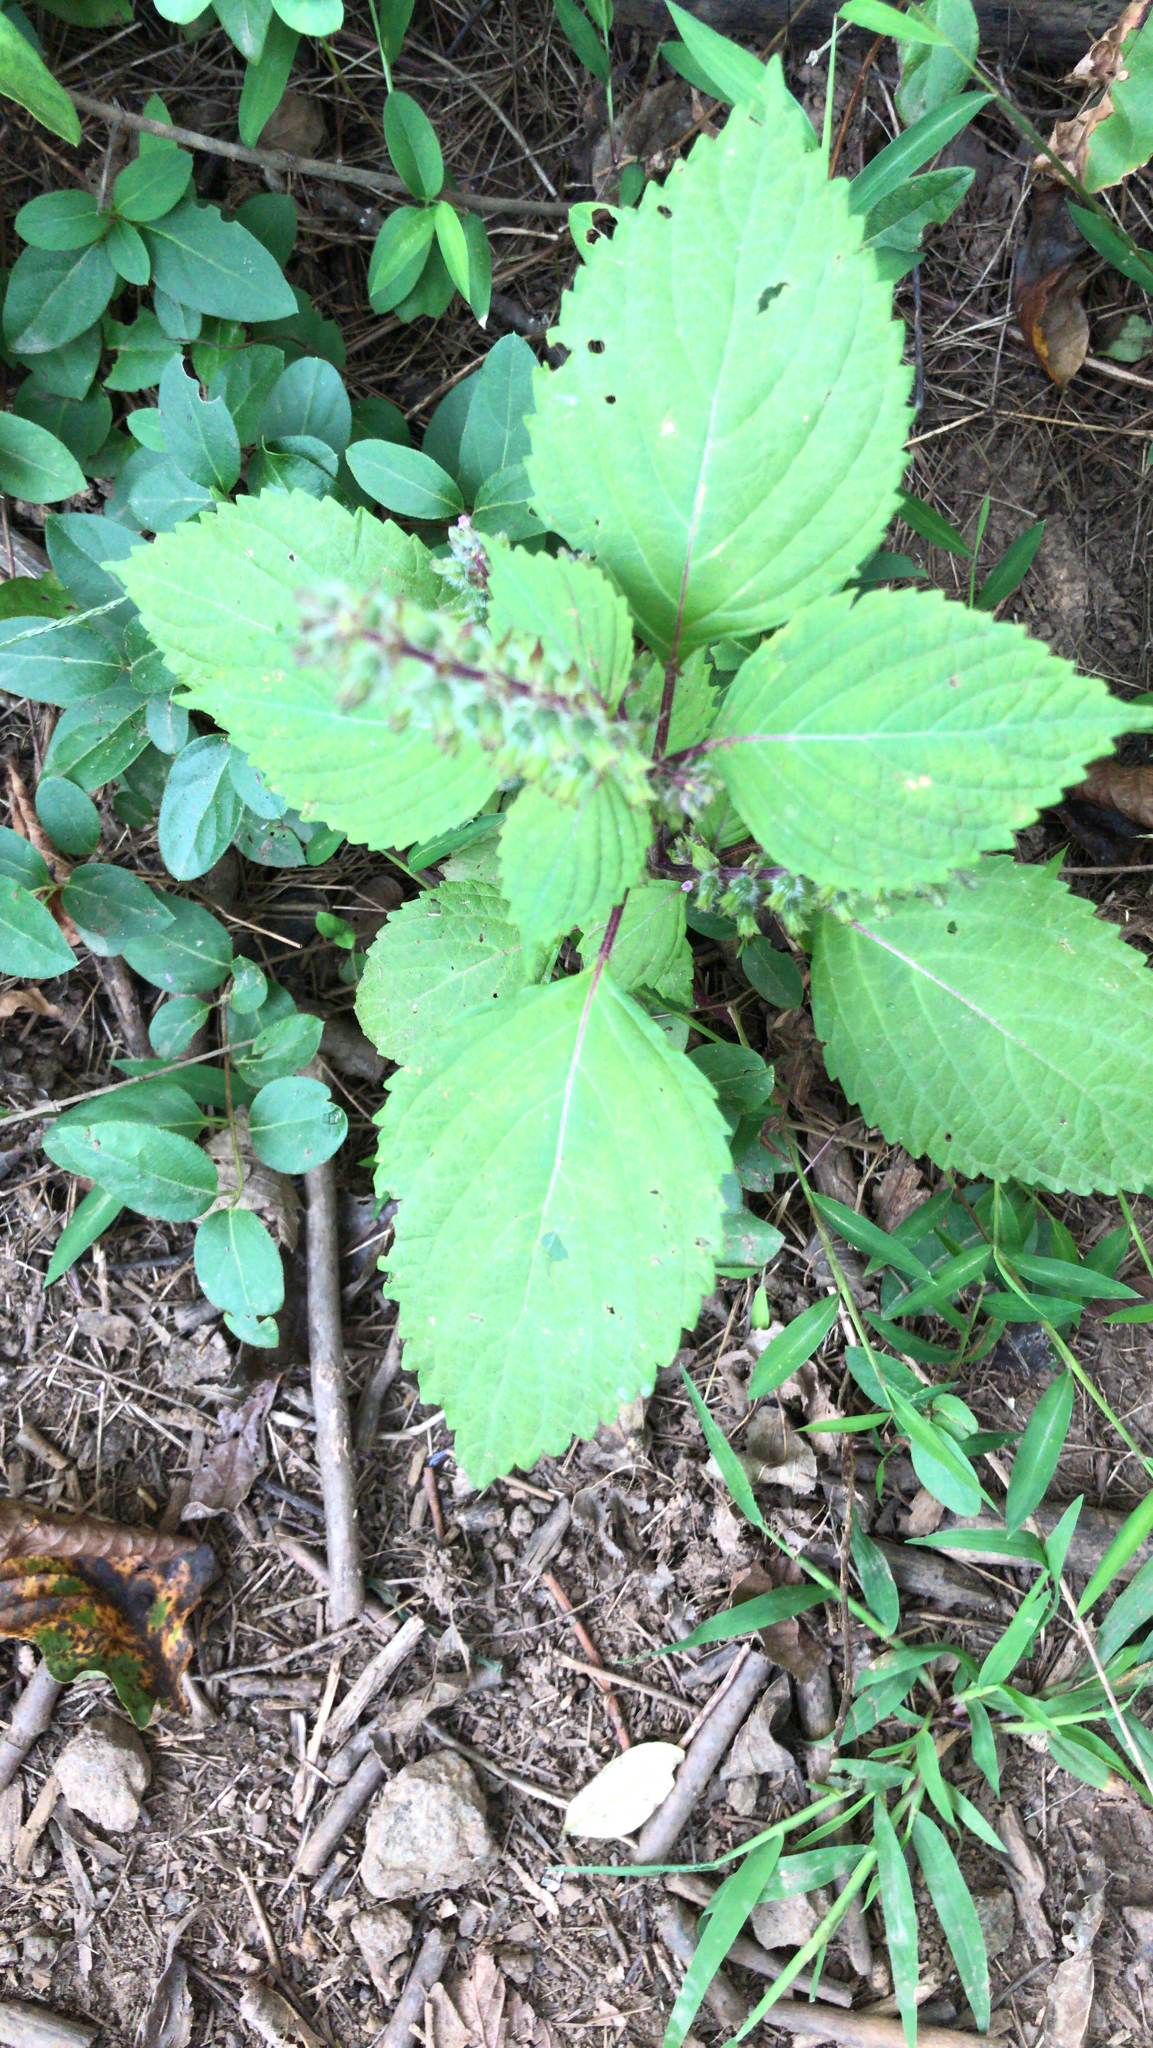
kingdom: Plantae
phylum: Tracheophyta
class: Magnoliopsida
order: Lamiales
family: Lamiaceae
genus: Perilla
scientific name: Perilla frutescens
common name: Perilla
